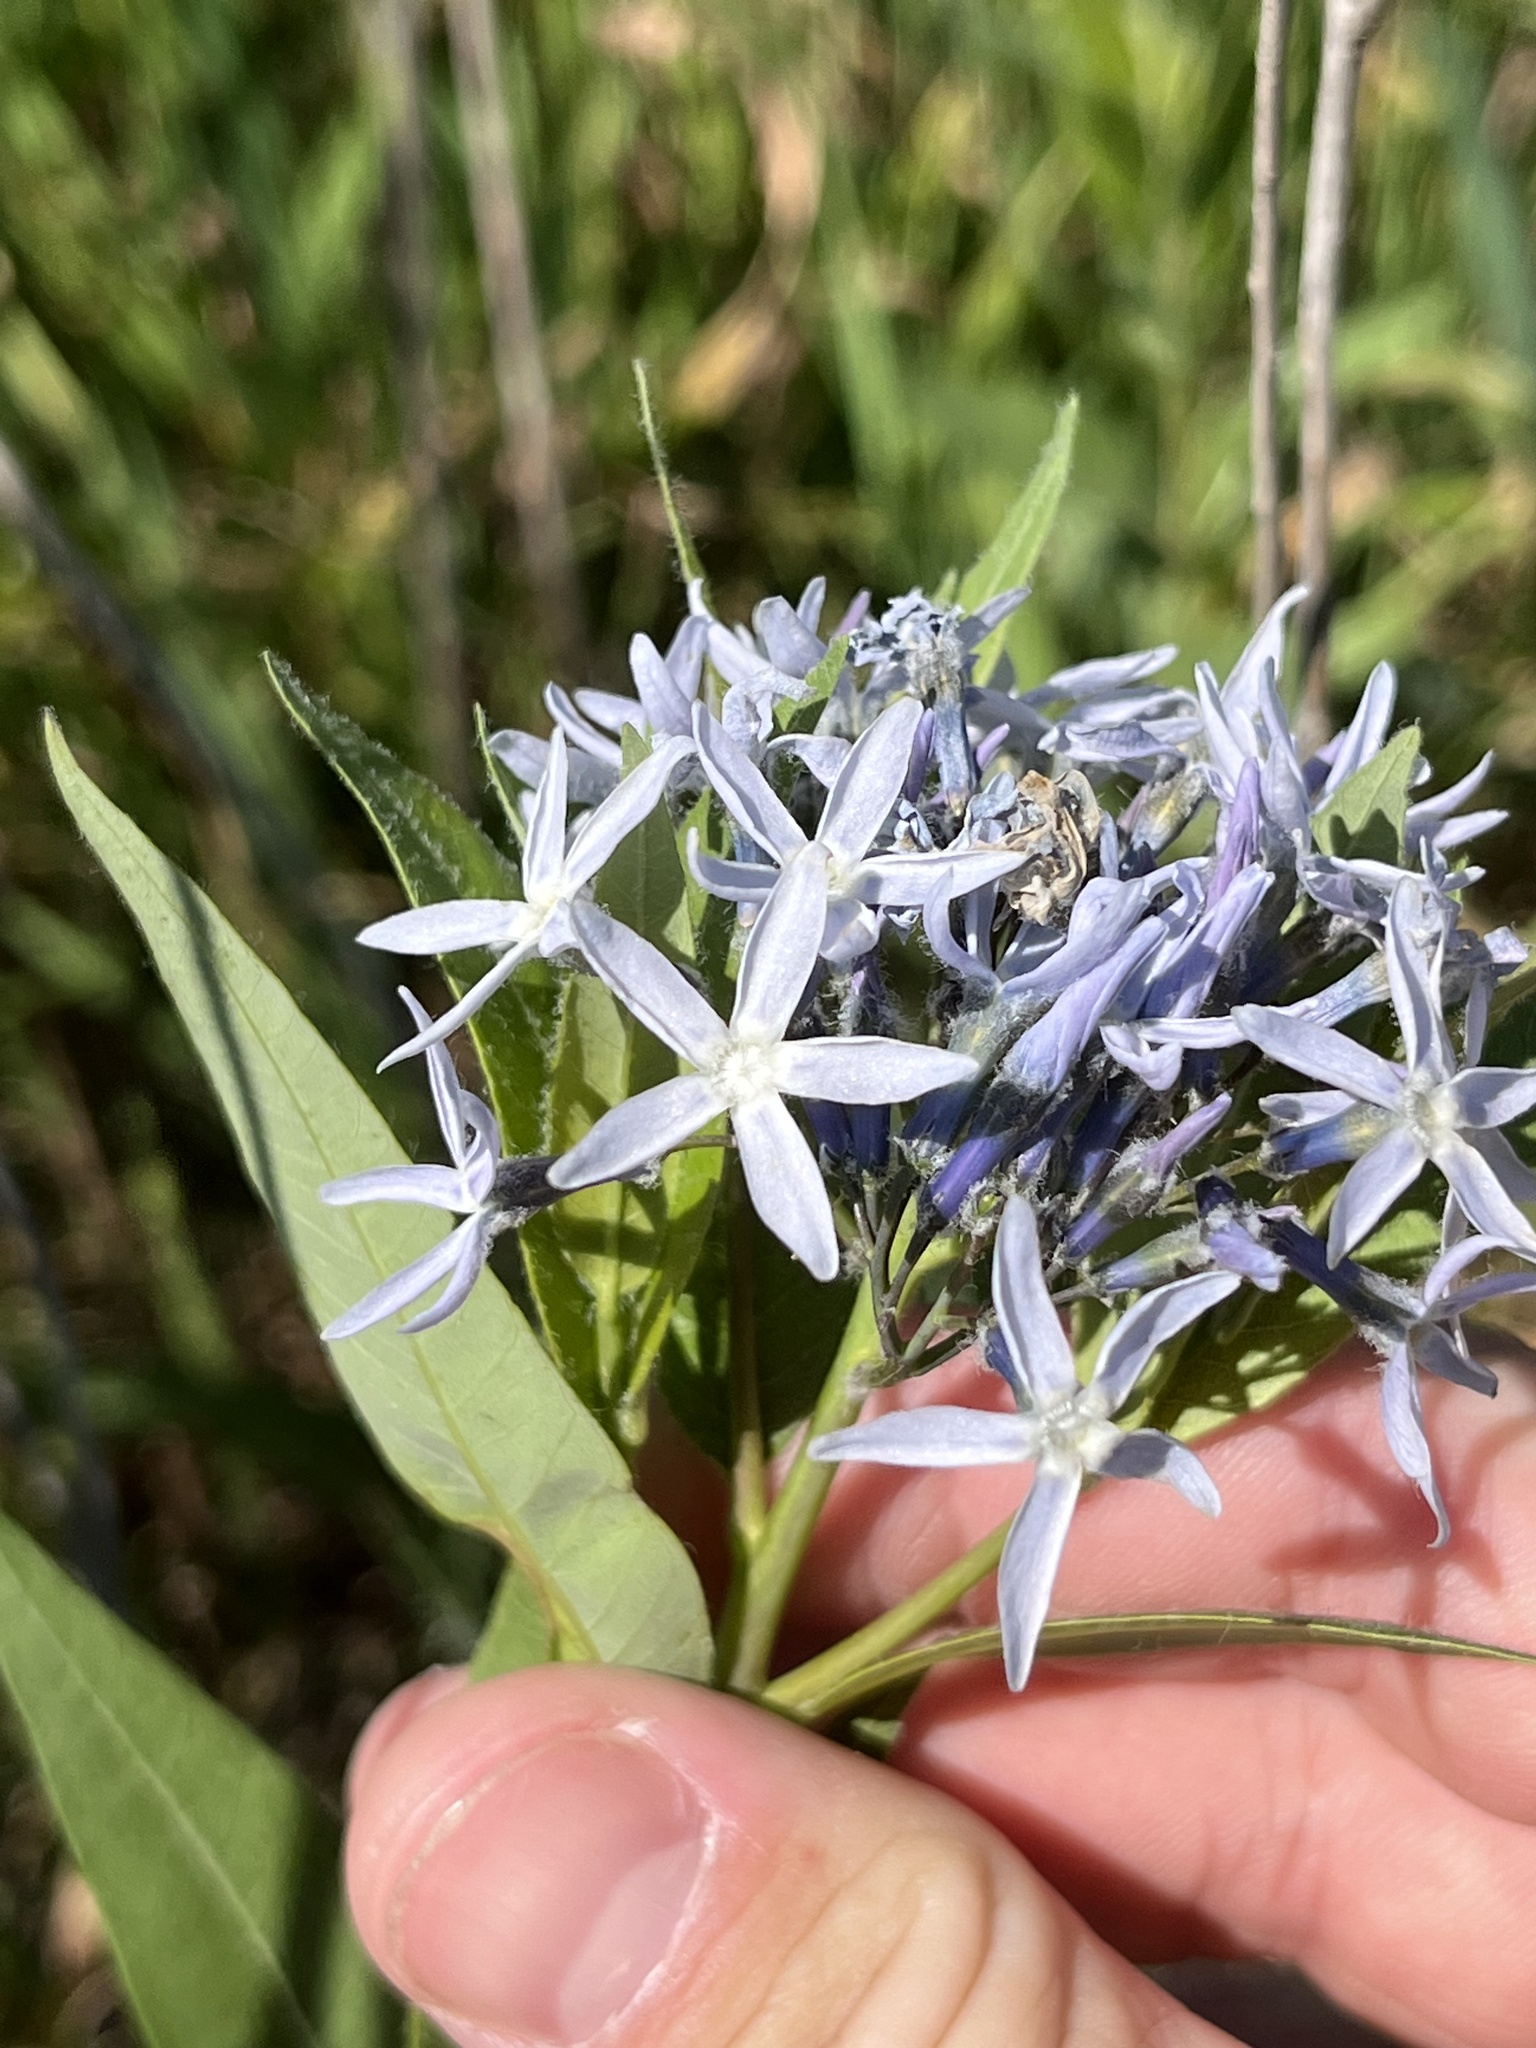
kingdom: Plantae
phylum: Tracheophyta
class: Magnoliopsida
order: Gentianales
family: Apocynaceae
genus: Amsonia
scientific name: Amsonia tabernaemontana
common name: Texas-star
